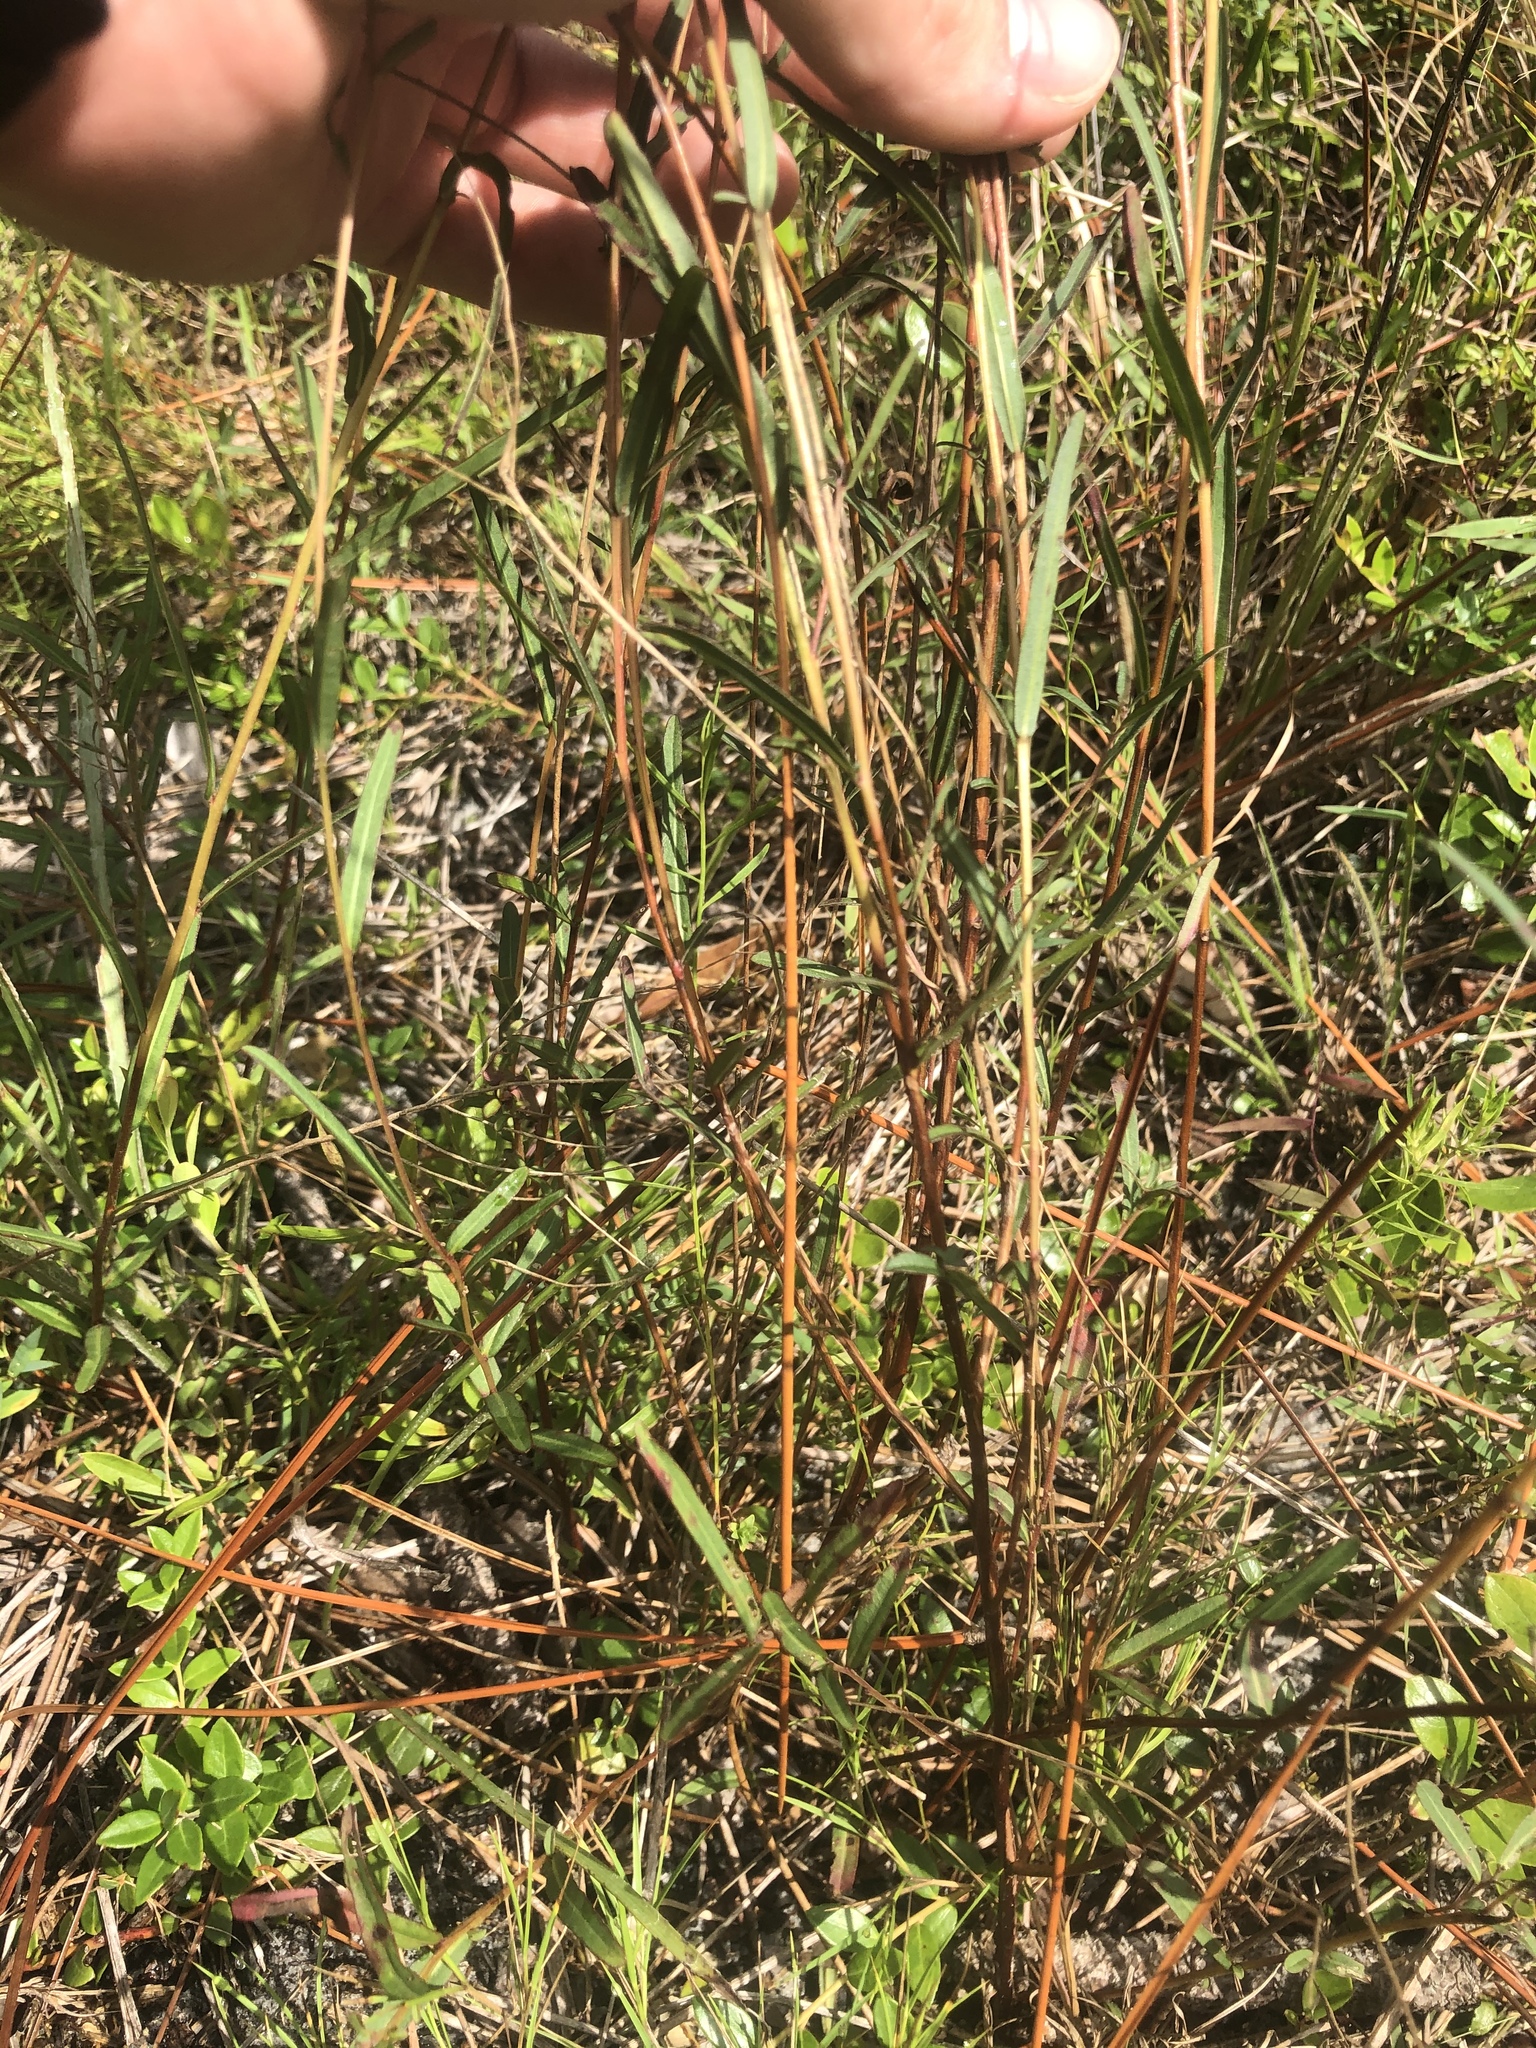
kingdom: Plantae
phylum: Tracheophyta
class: Magnoliopsida
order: Myrtales
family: Onagraceae
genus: Ludwigia
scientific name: Ludwigia virgata
